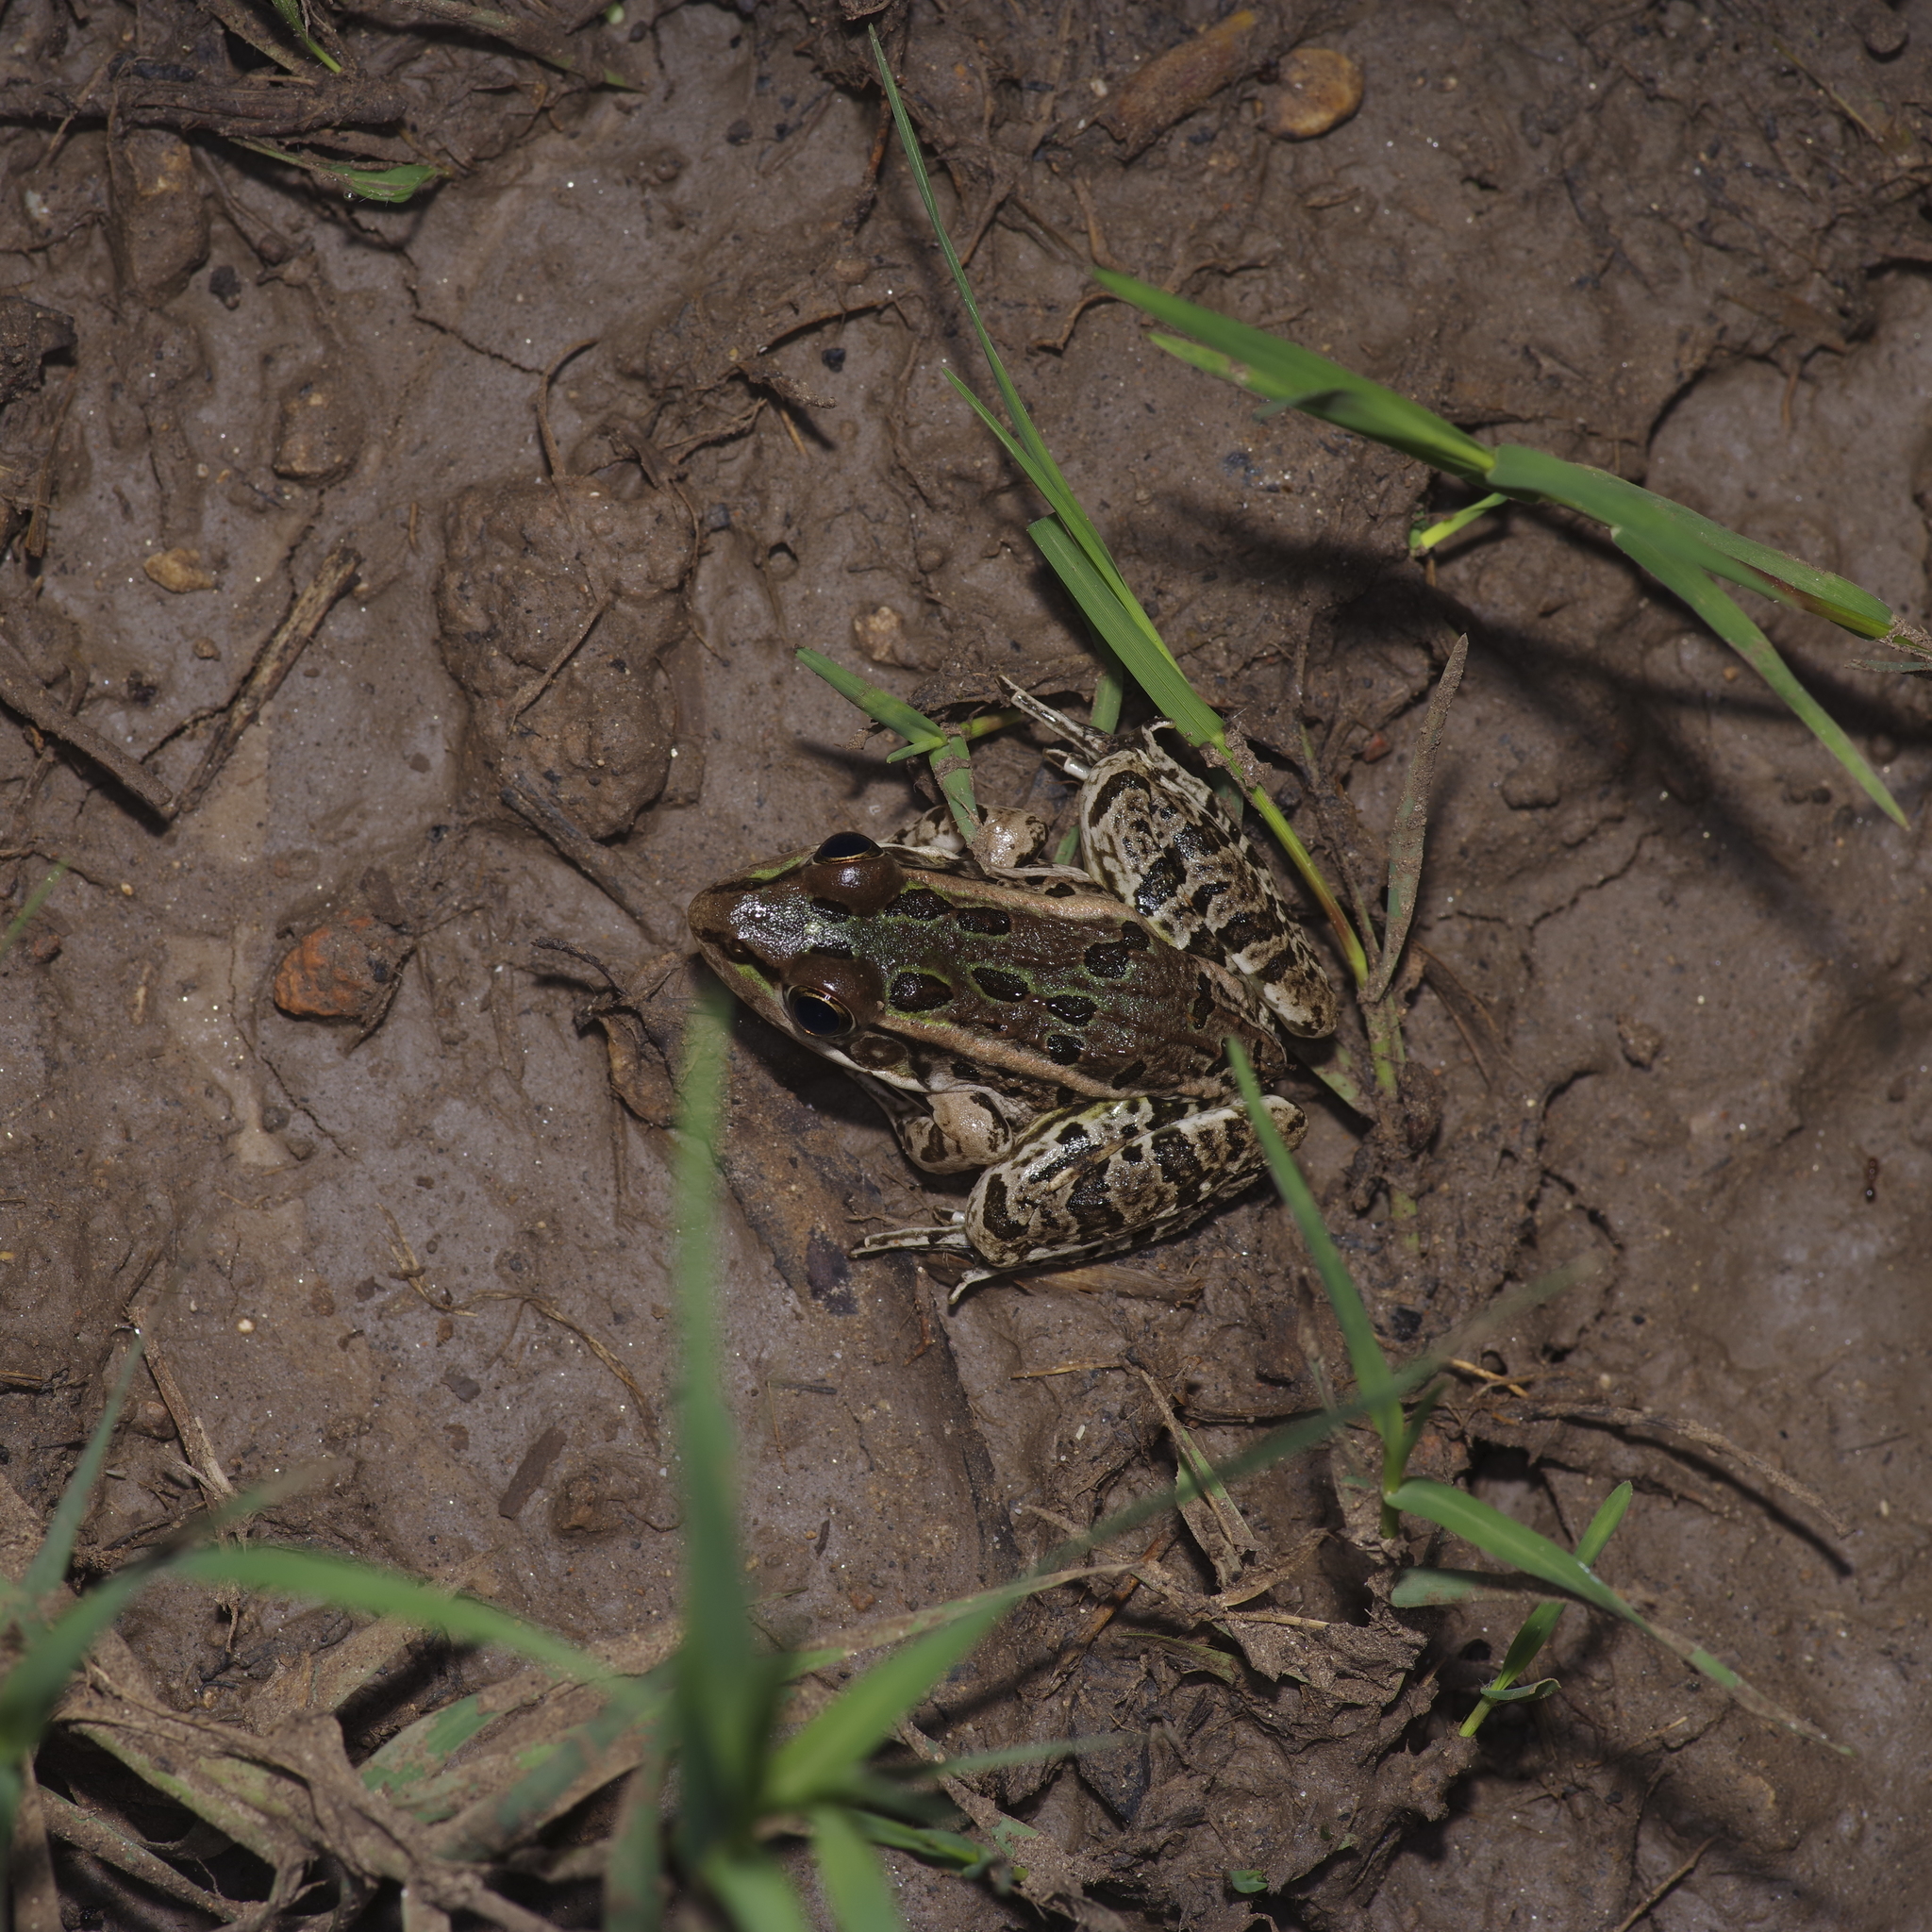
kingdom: Animalia
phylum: Chordata
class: Amphibia
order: Anura
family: Ranidae
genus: Lithobates
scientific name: Lithobates berlandieri
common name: Rio grande leopard frog
